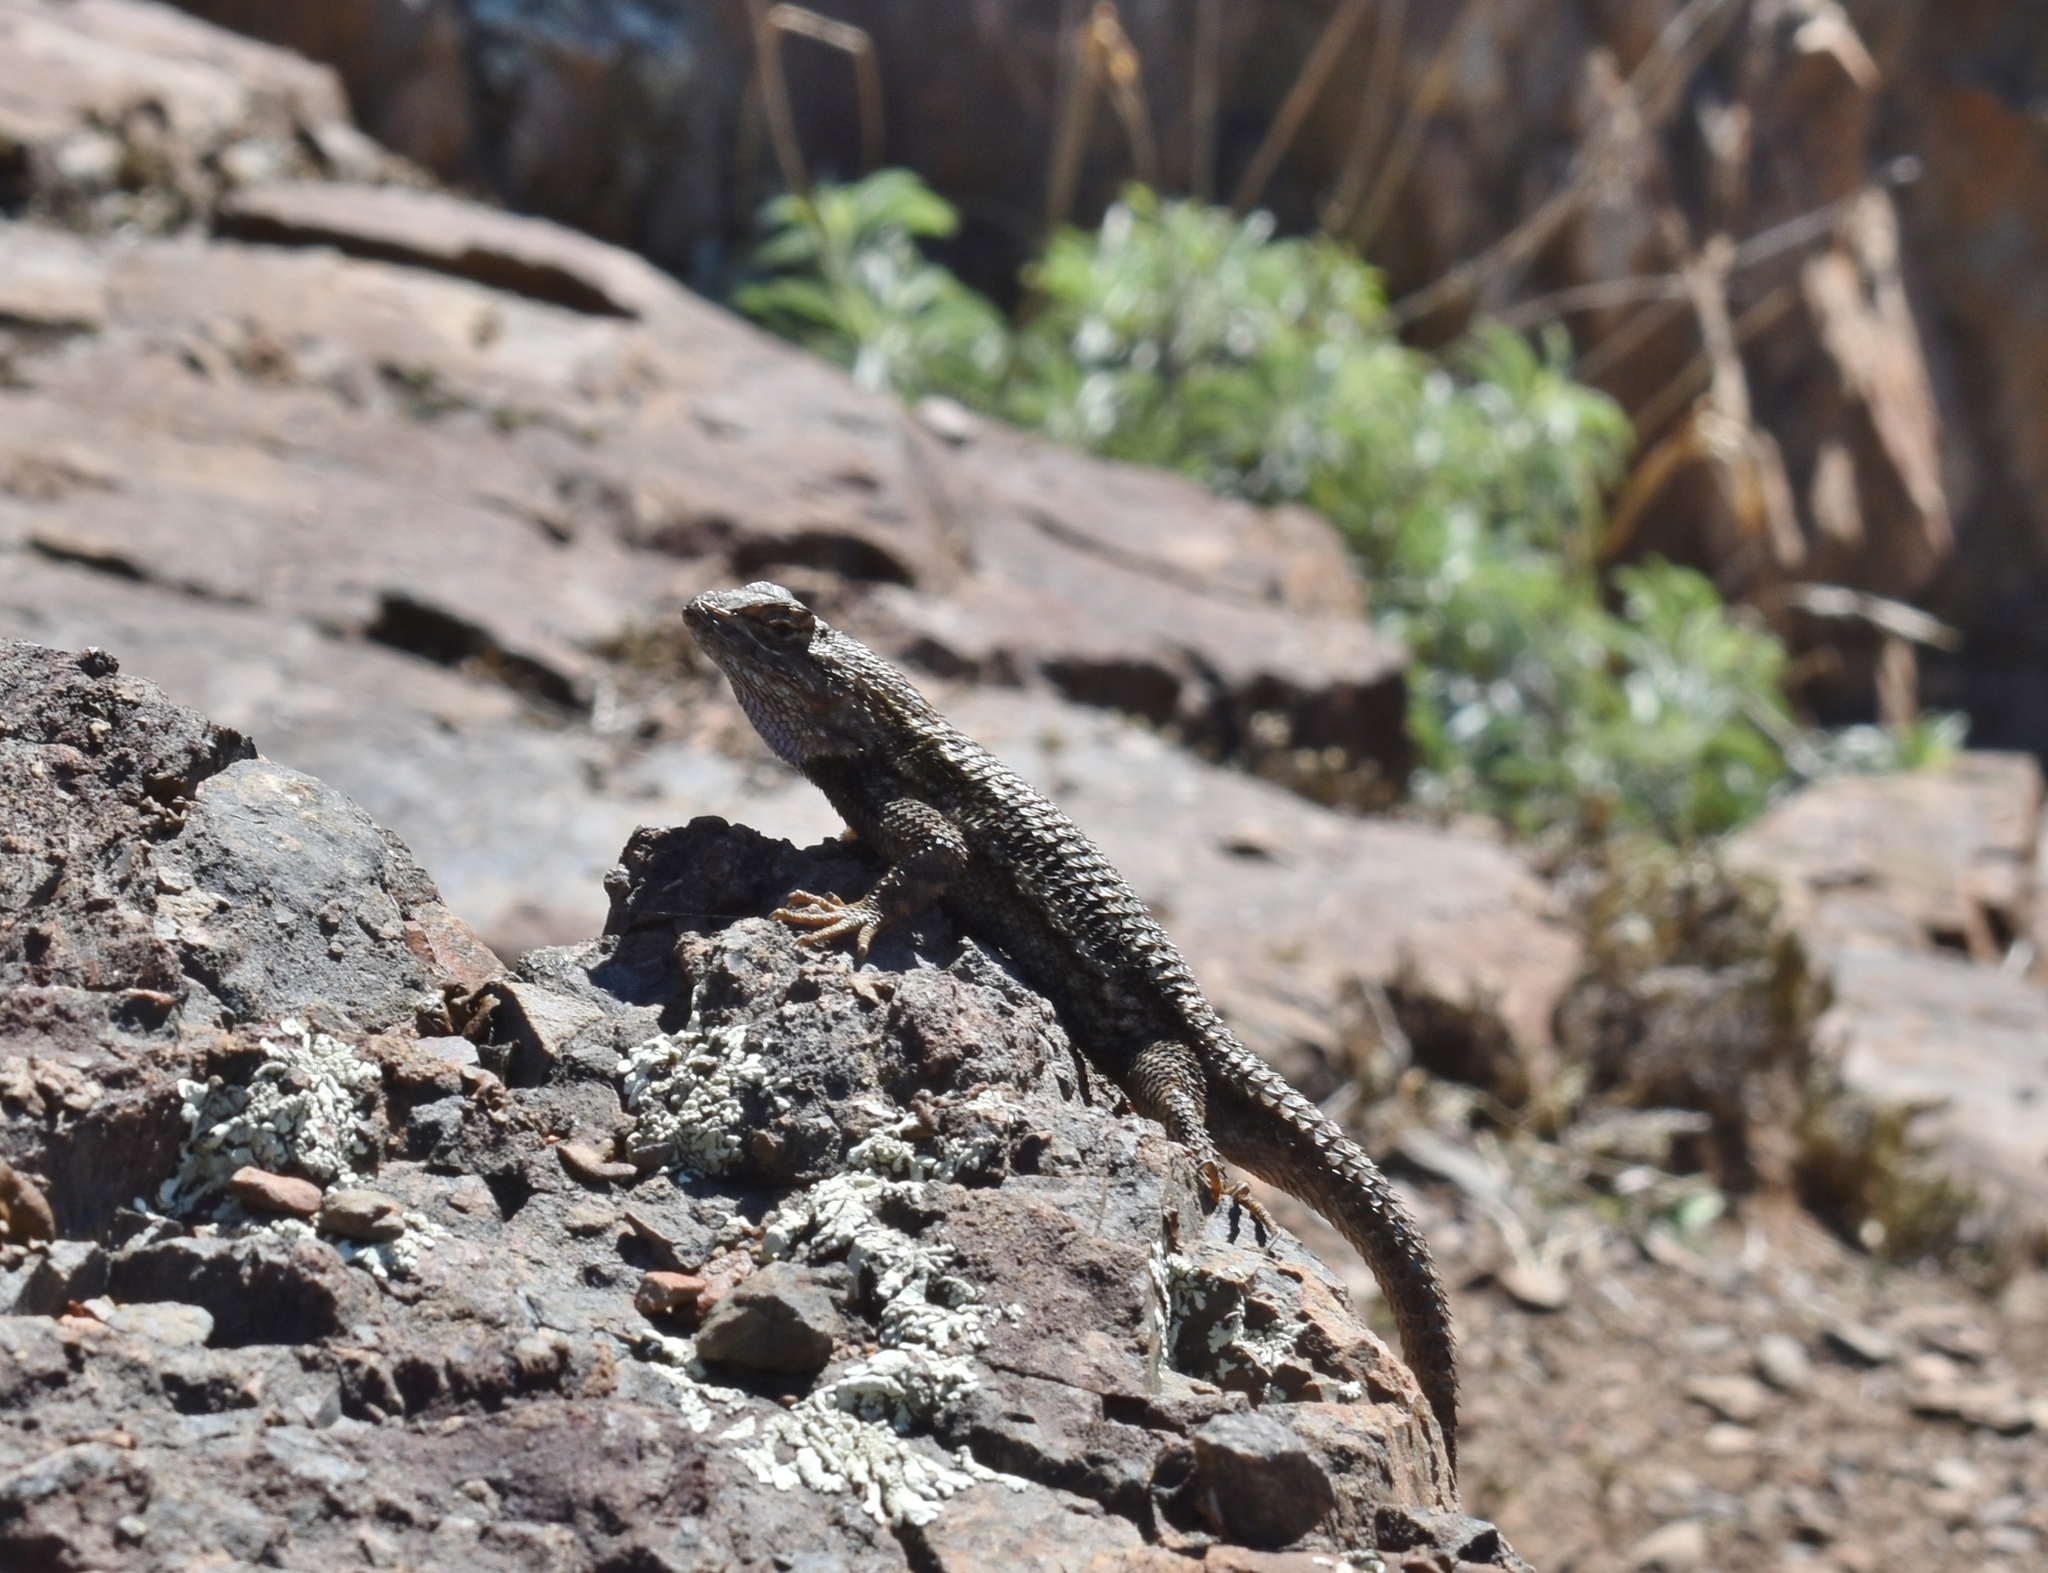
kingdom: Animalia
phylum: Chordata
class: Squamata
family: Phrynosomatidae
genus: Sceloporus
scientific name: Sceloporus occidentalis
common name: Western fence lizard
